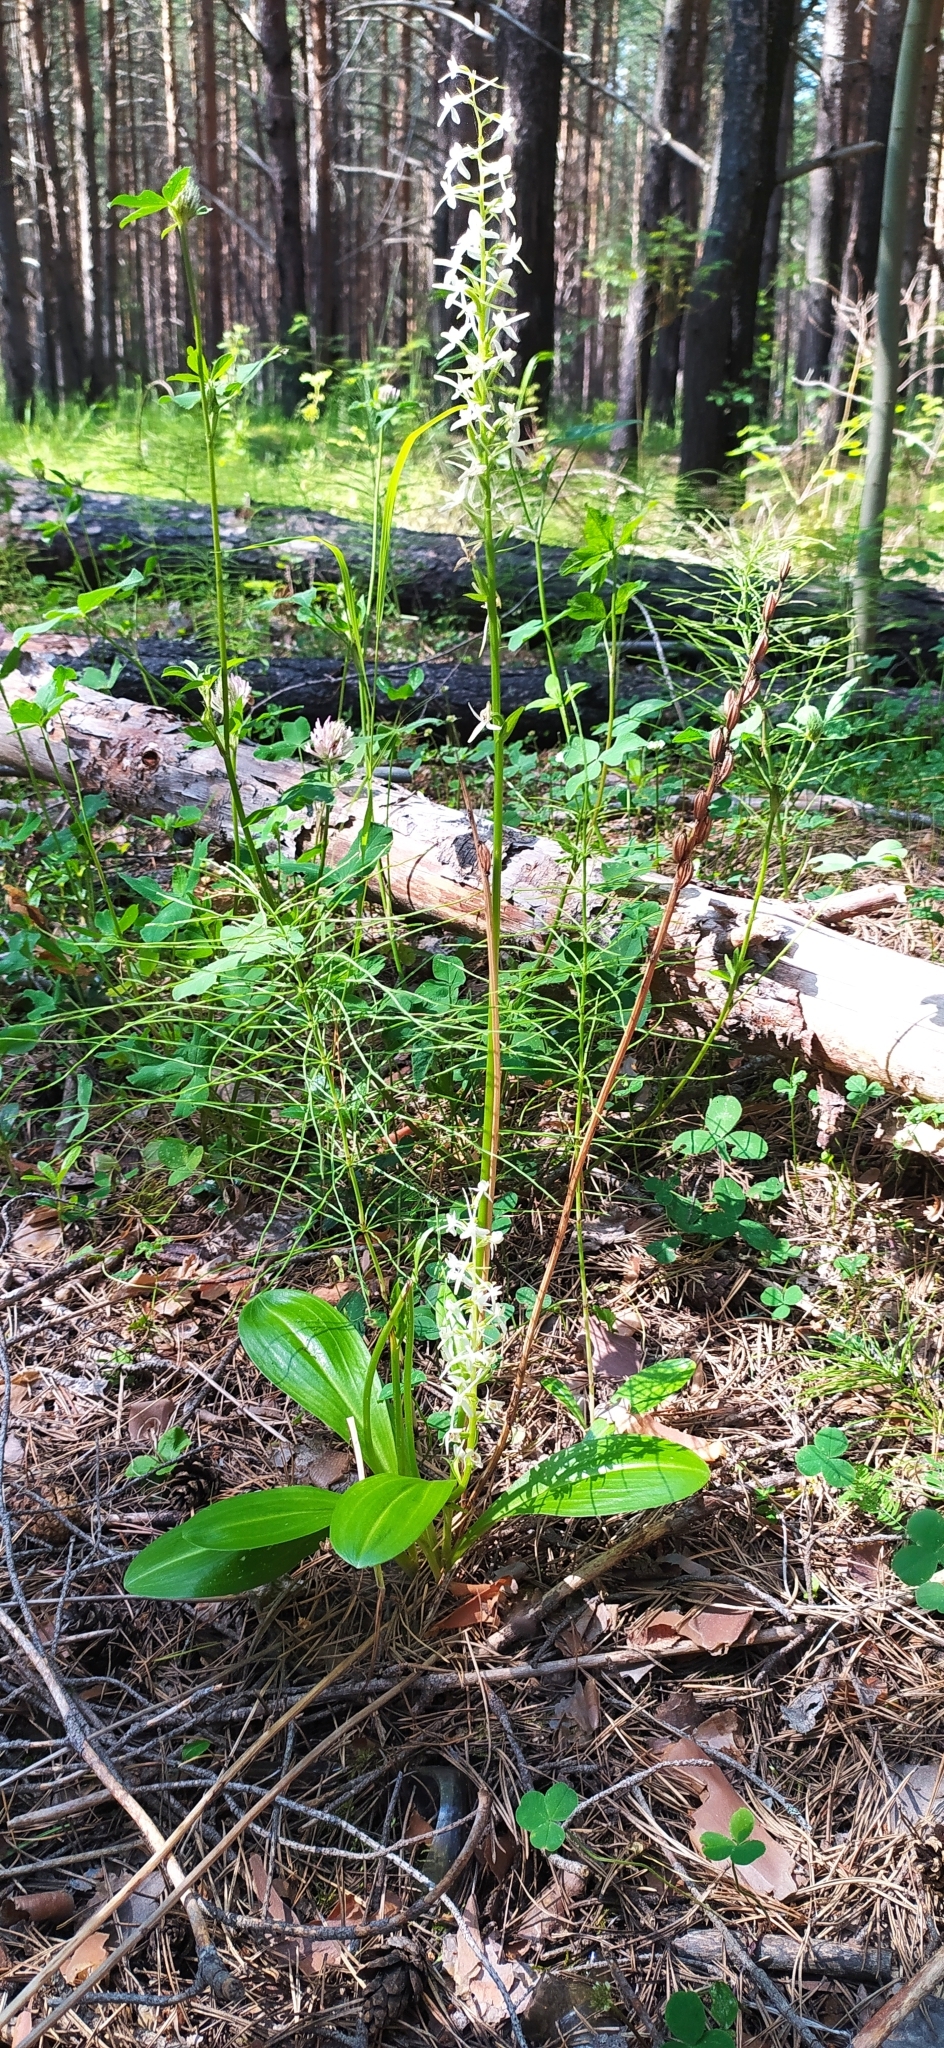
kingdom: Plantae
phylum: Tracheophyta
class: Liliopsida
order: Asparagales
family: Orchidaceae
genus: Platanthera
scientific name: Platanthera bifolia
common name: Lesser butterfly-orchid
